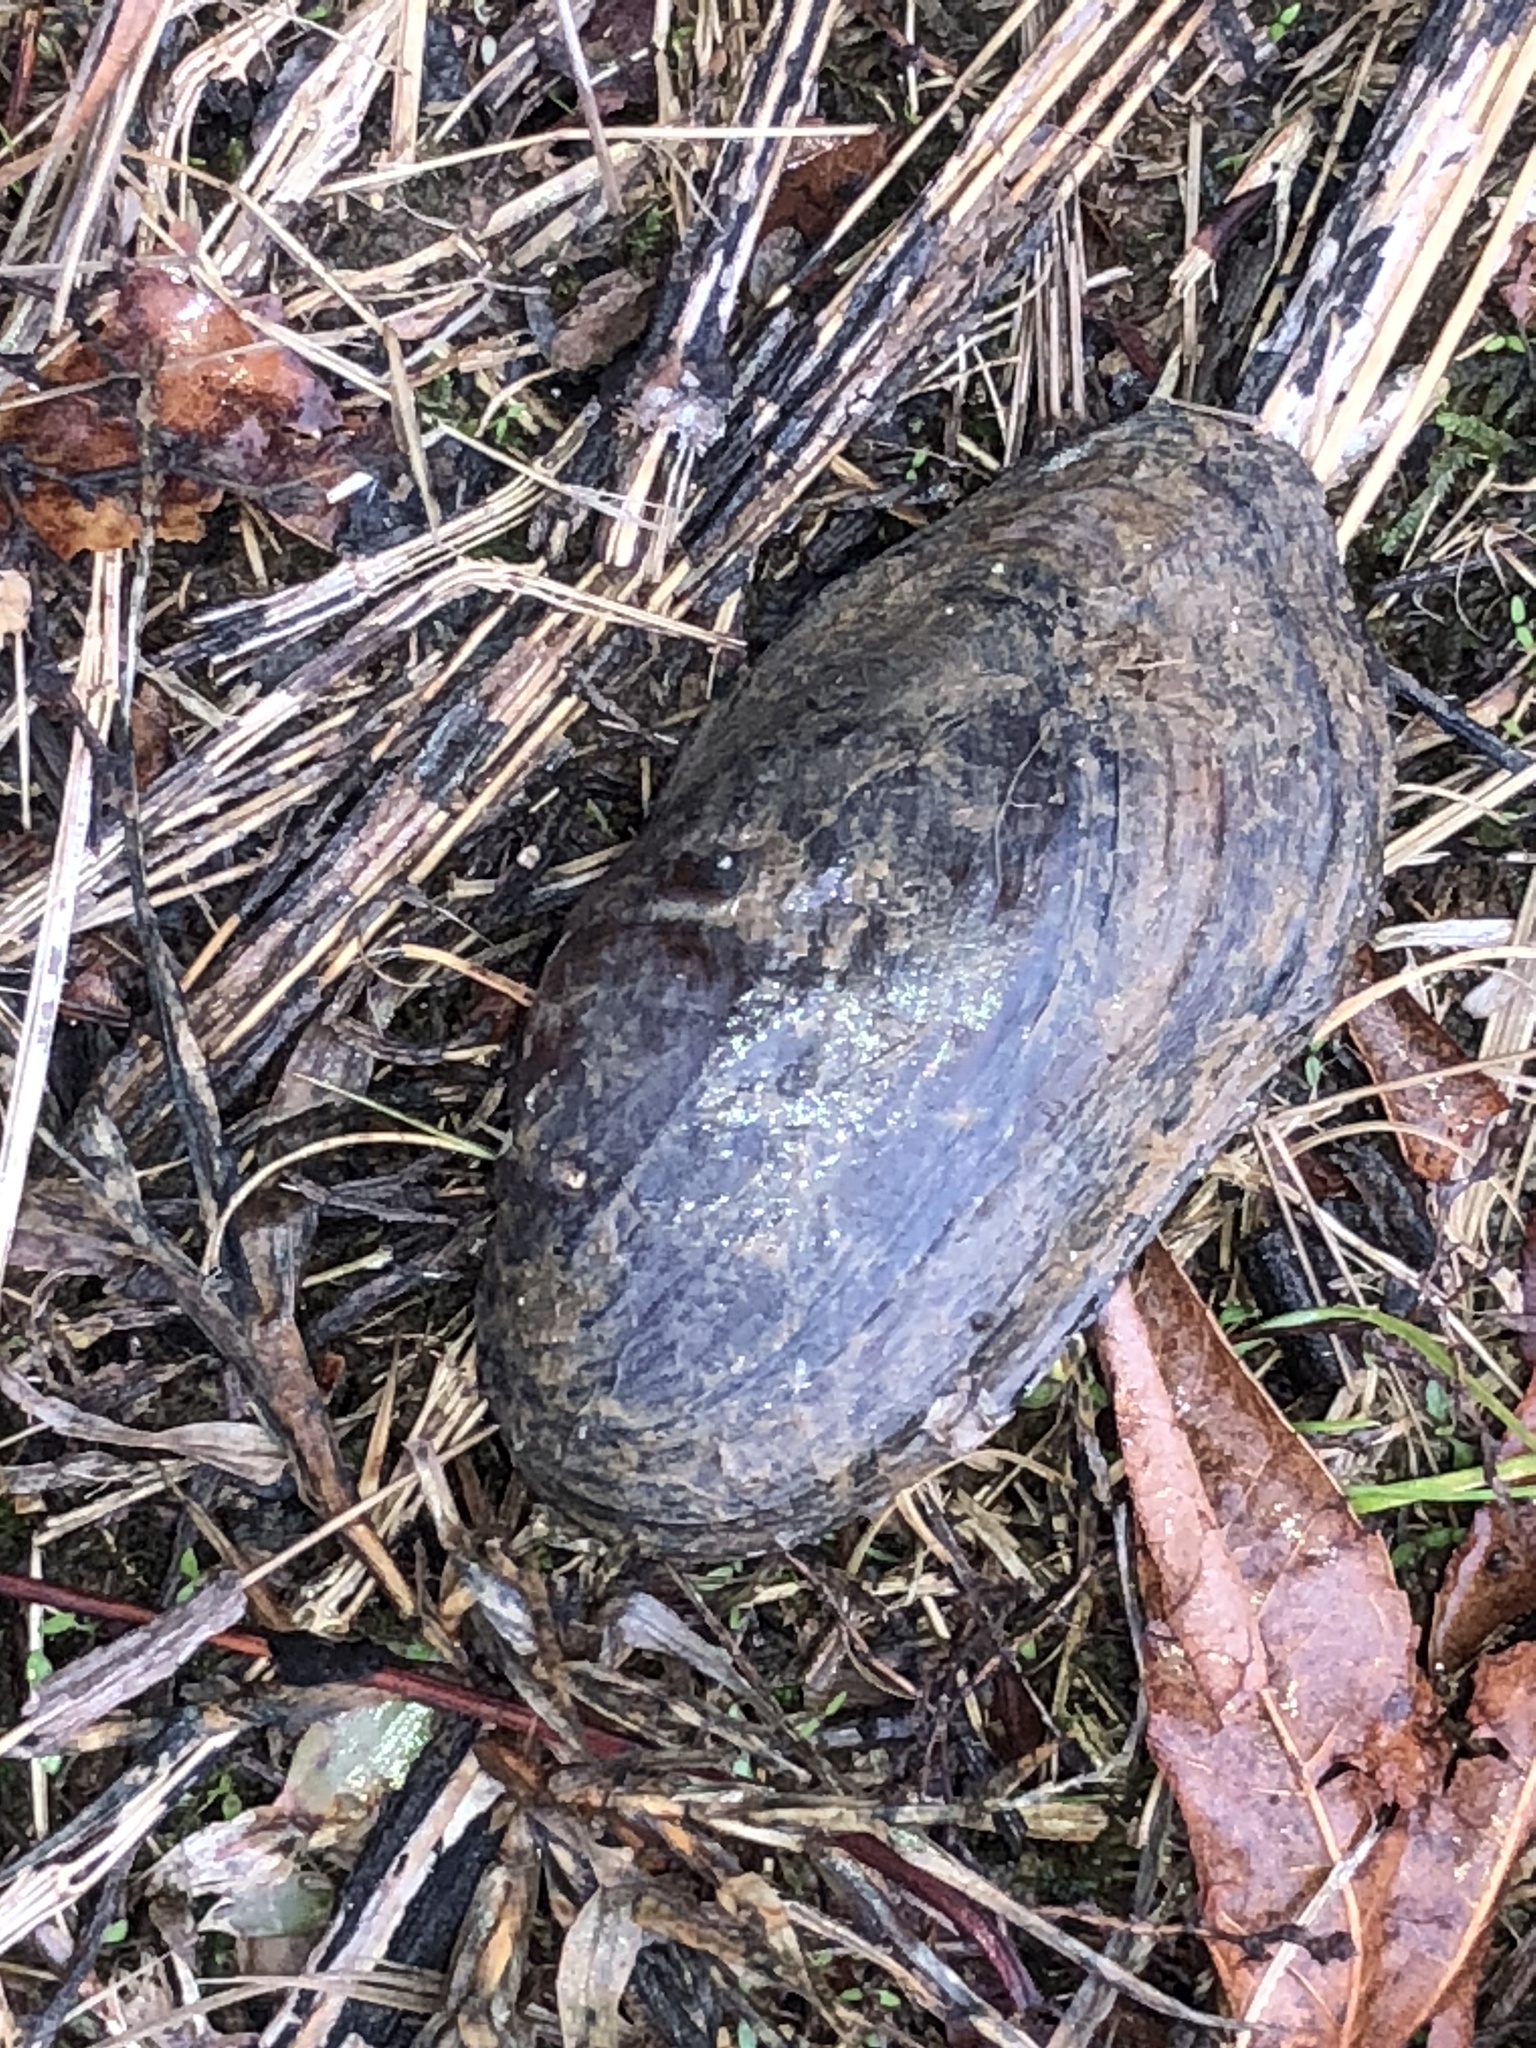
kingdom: Animalia
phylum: Mollusca
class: Bivalvia
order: Unionida
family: Unionidae
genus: Sagittunio
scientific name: Sagittunio subrostratus
